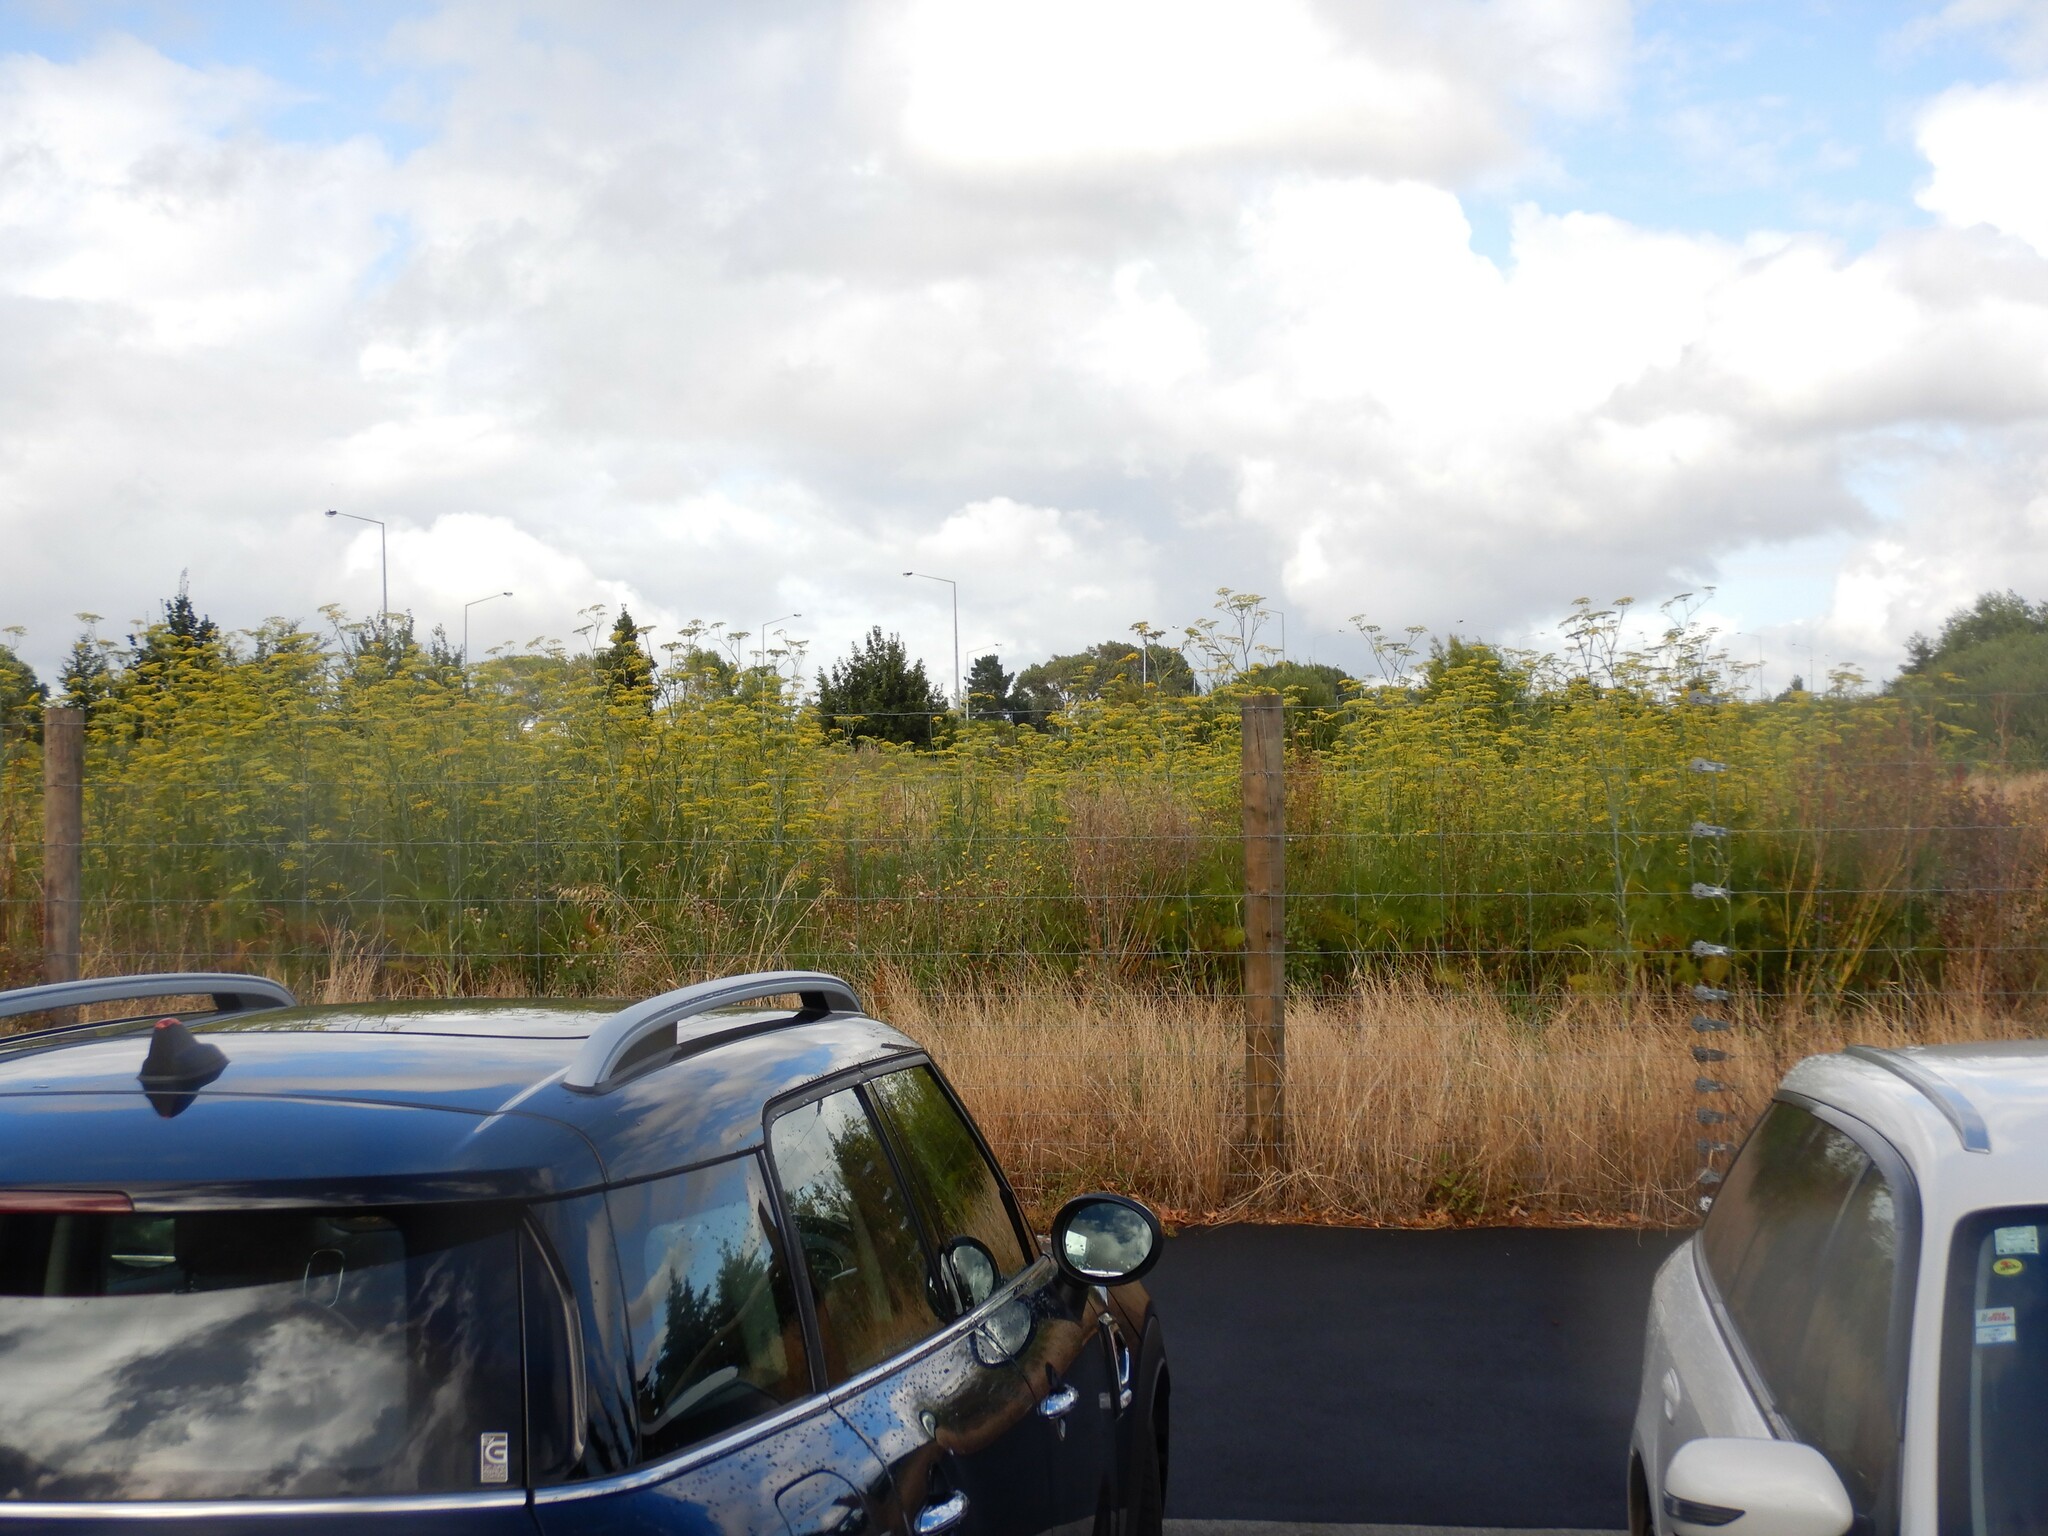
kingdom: Plantae
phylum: Tracheophyta
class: Magnoliopsida
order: Apiales
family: Apiaceae
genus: Foeniculum
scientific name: Foeniculum vulgare
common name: Fennel
